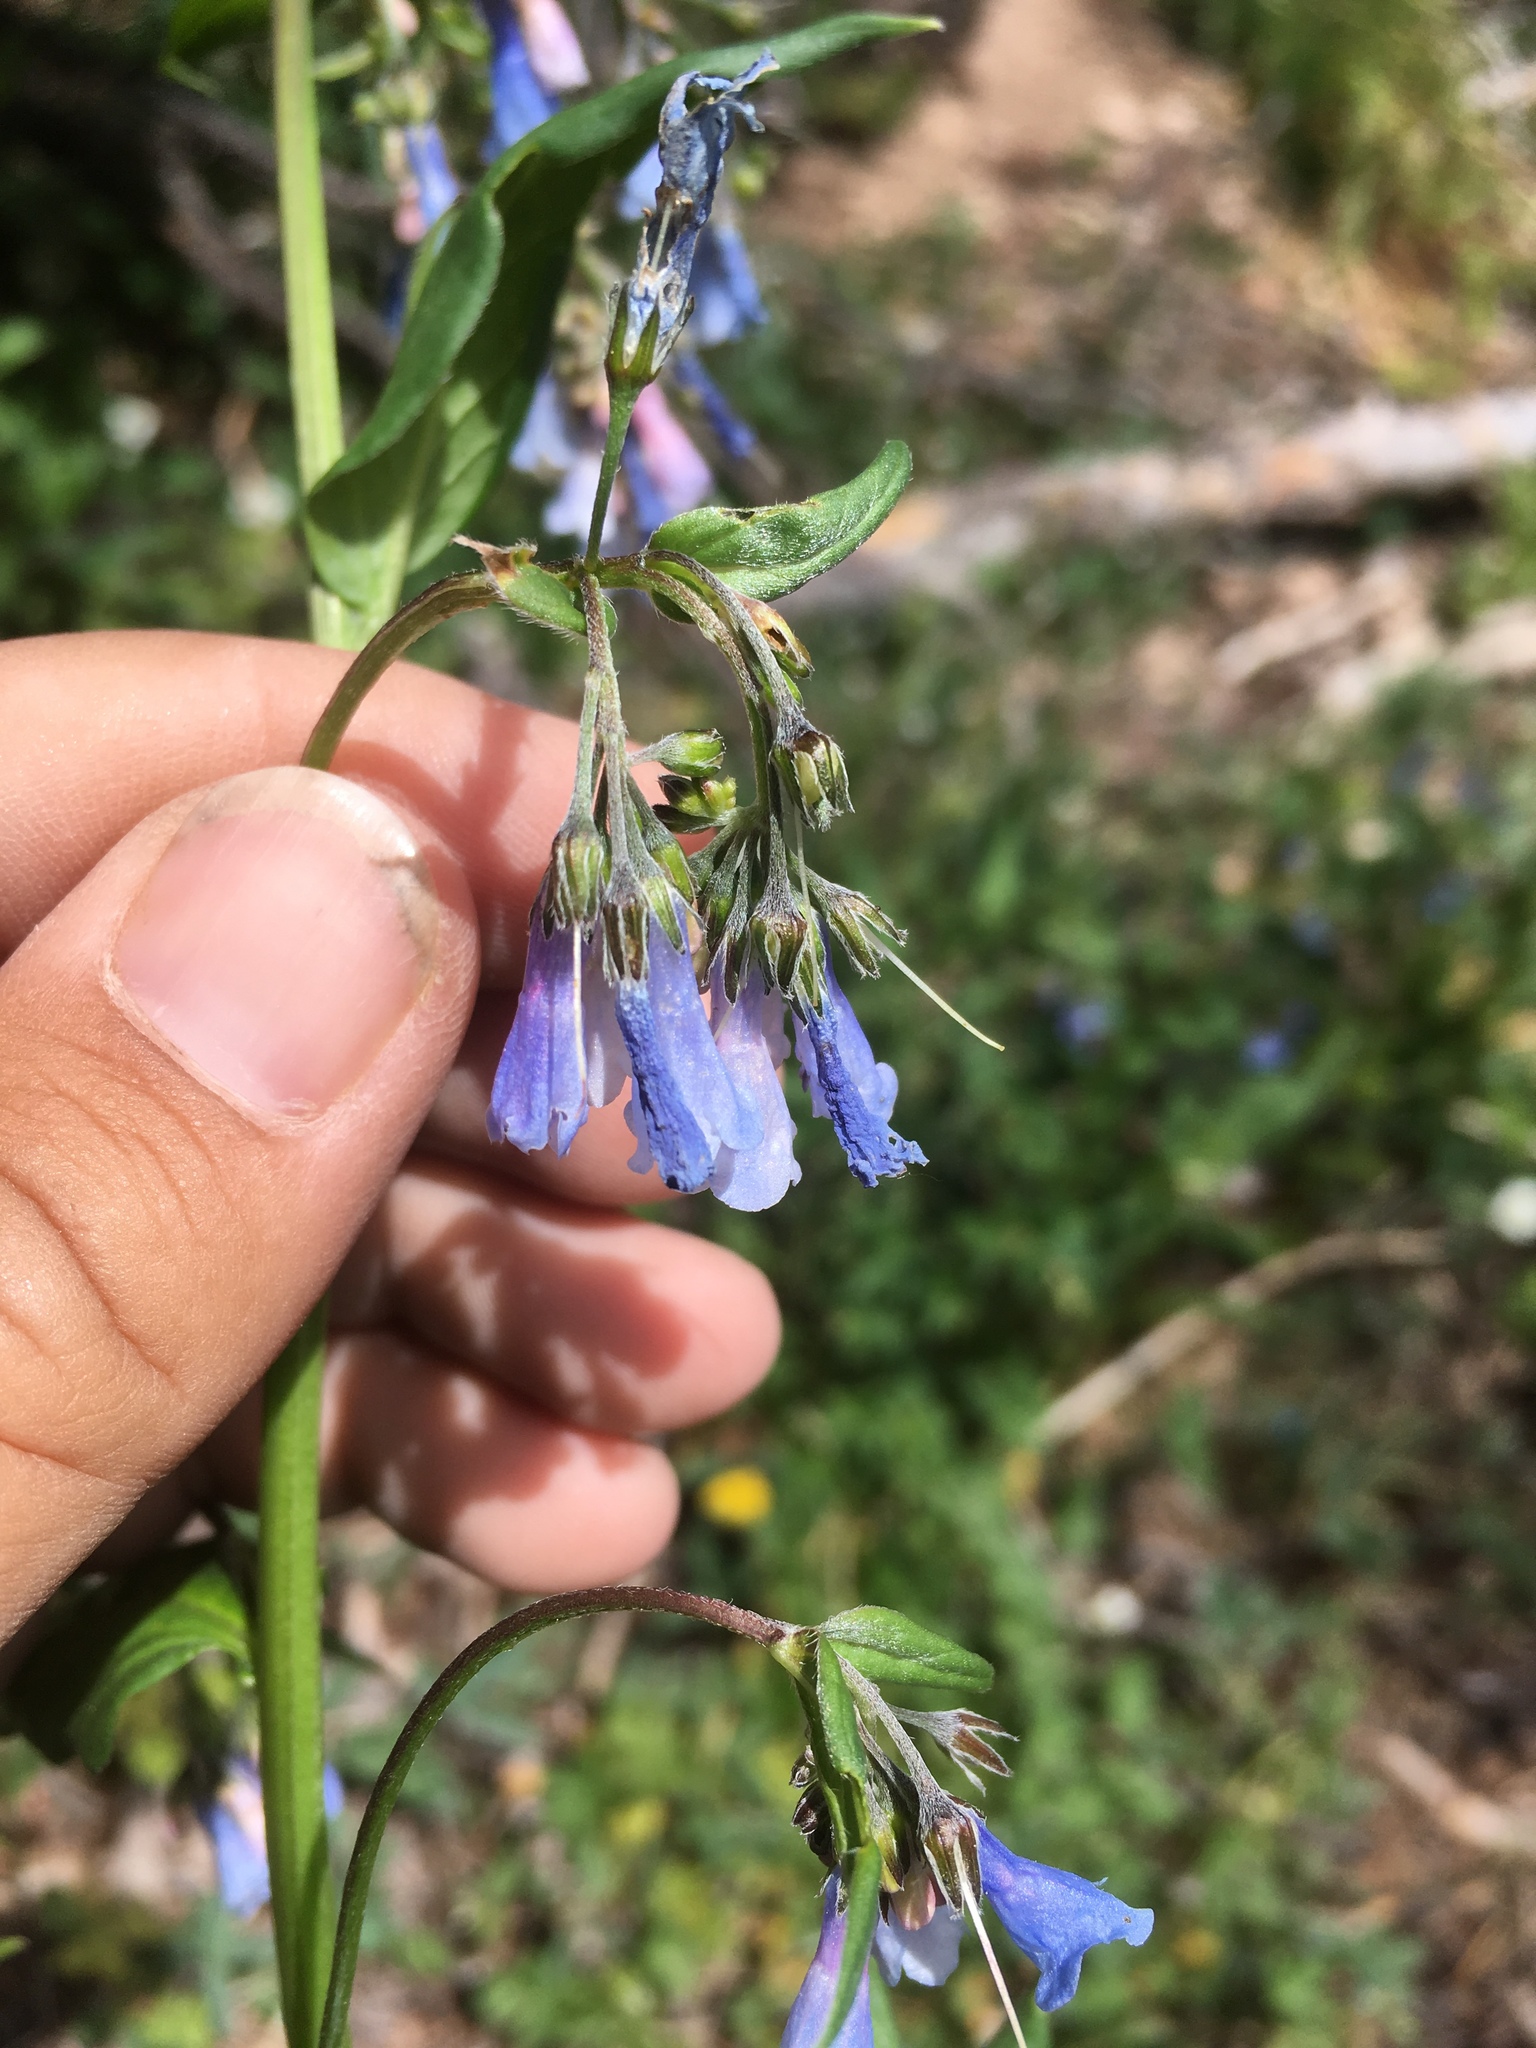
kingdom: Plantae
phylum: Tracheophyta
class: Magnoliopsida
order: Boraginales
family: Boraginaceae
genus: Mertensia
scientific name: Mertensia franciscana
